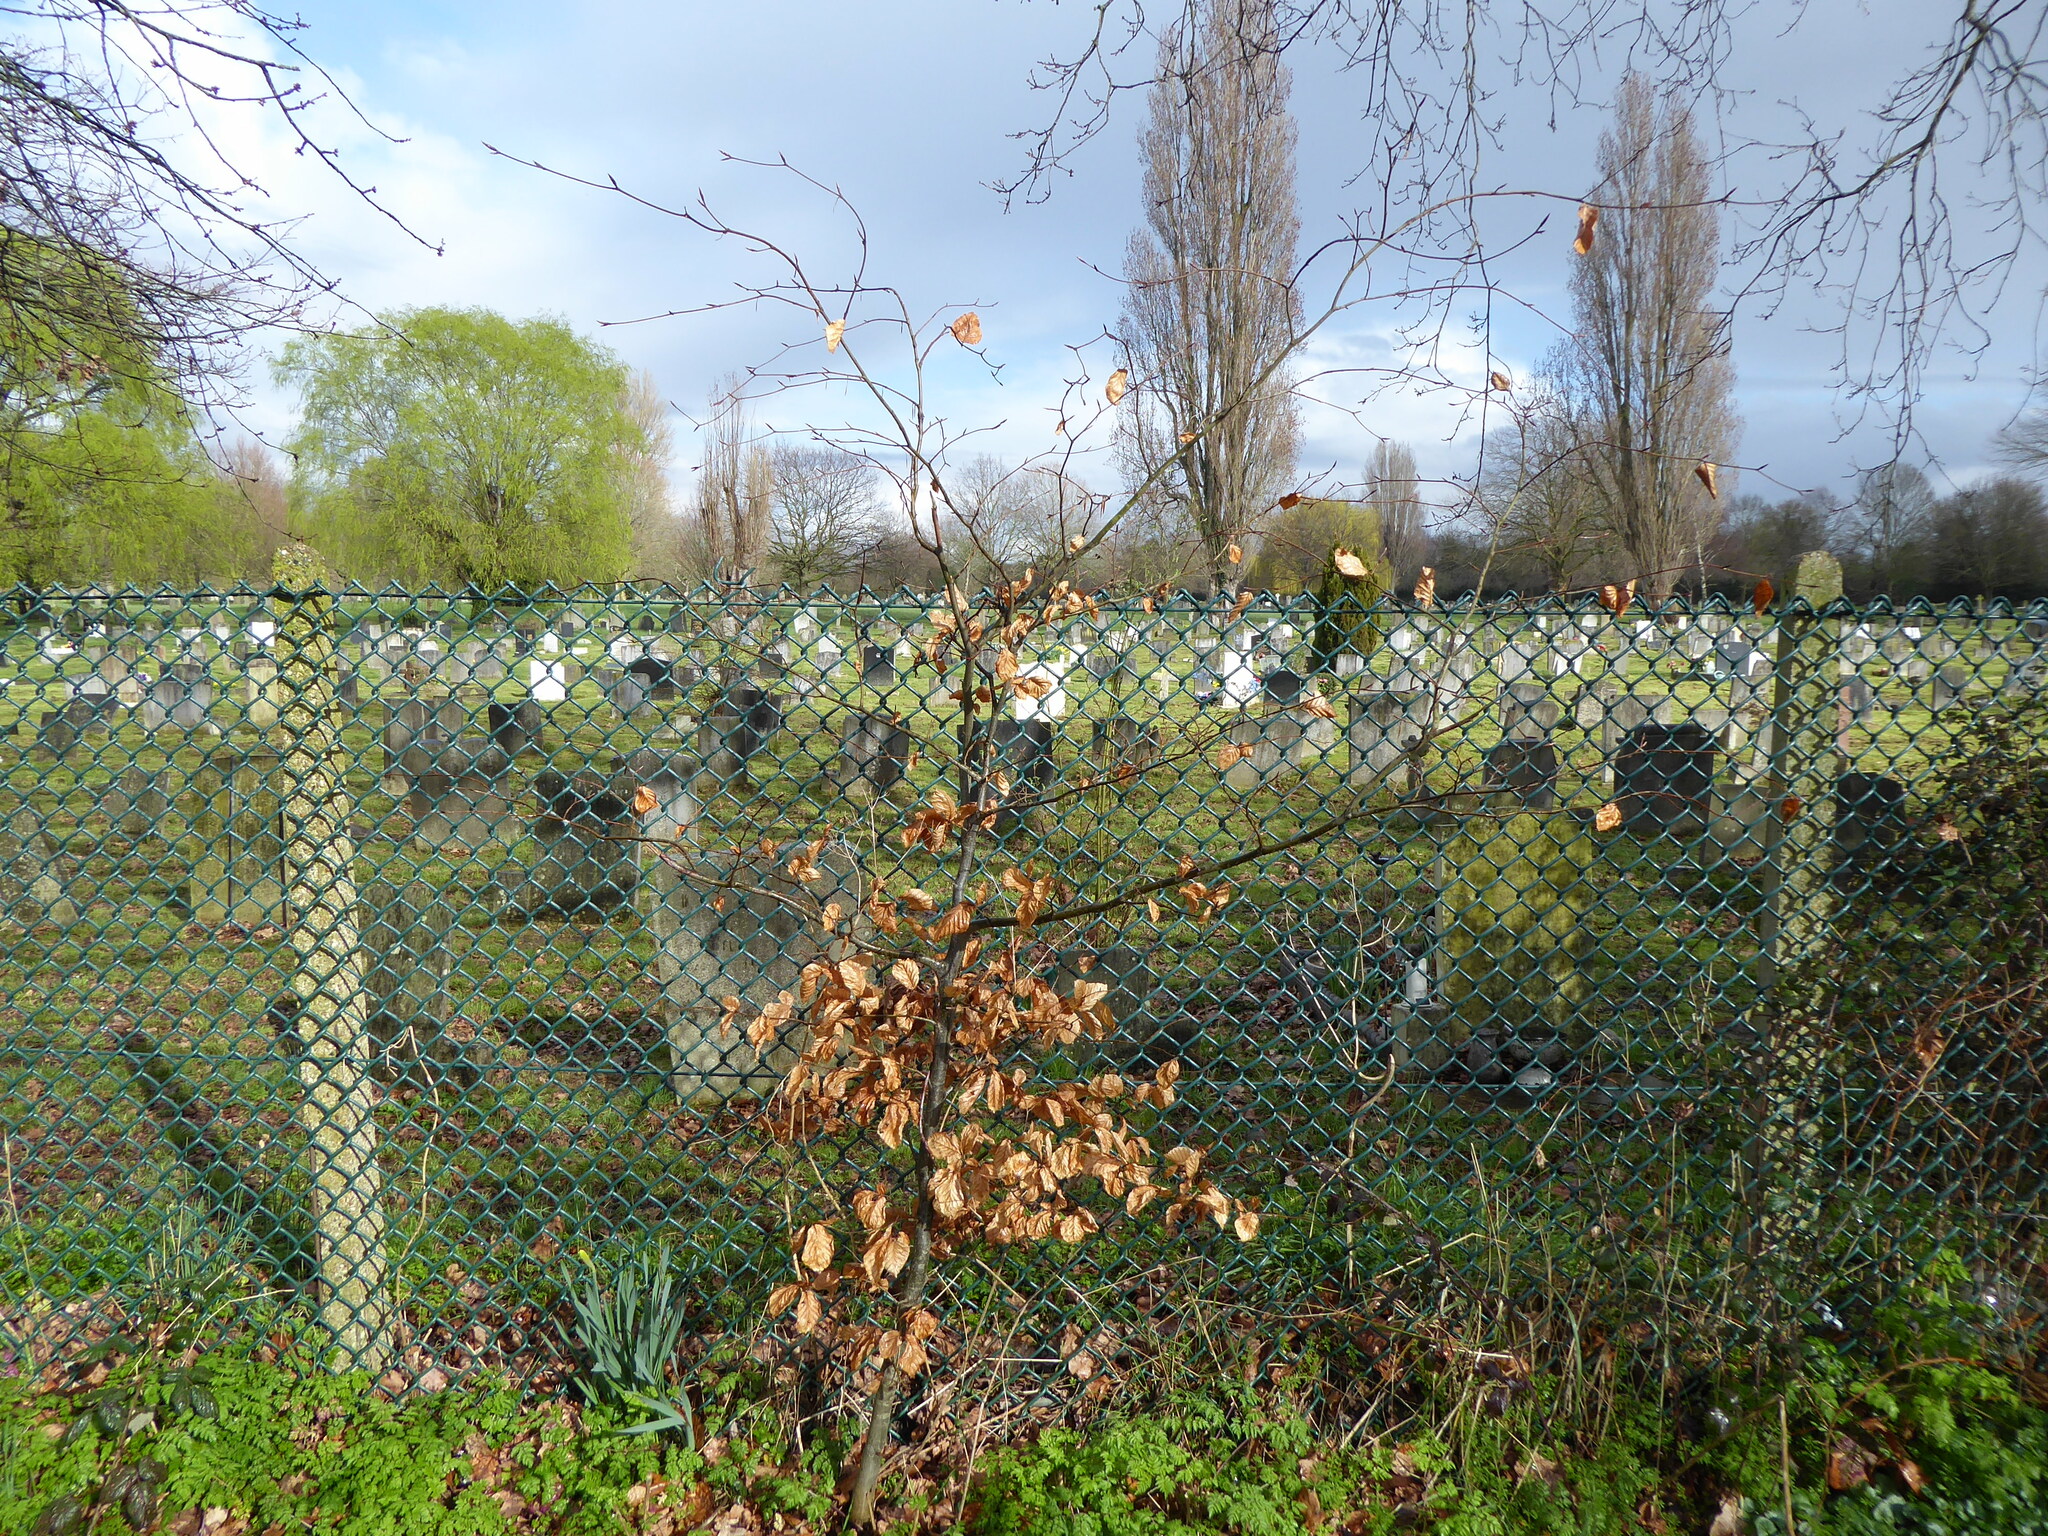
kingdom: Plantae
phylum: Tracheophyta
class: Magnoliopsida
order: Fagales
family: Fagaceae
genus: Fagus
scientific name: Fagus sylvatica
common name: Beech
